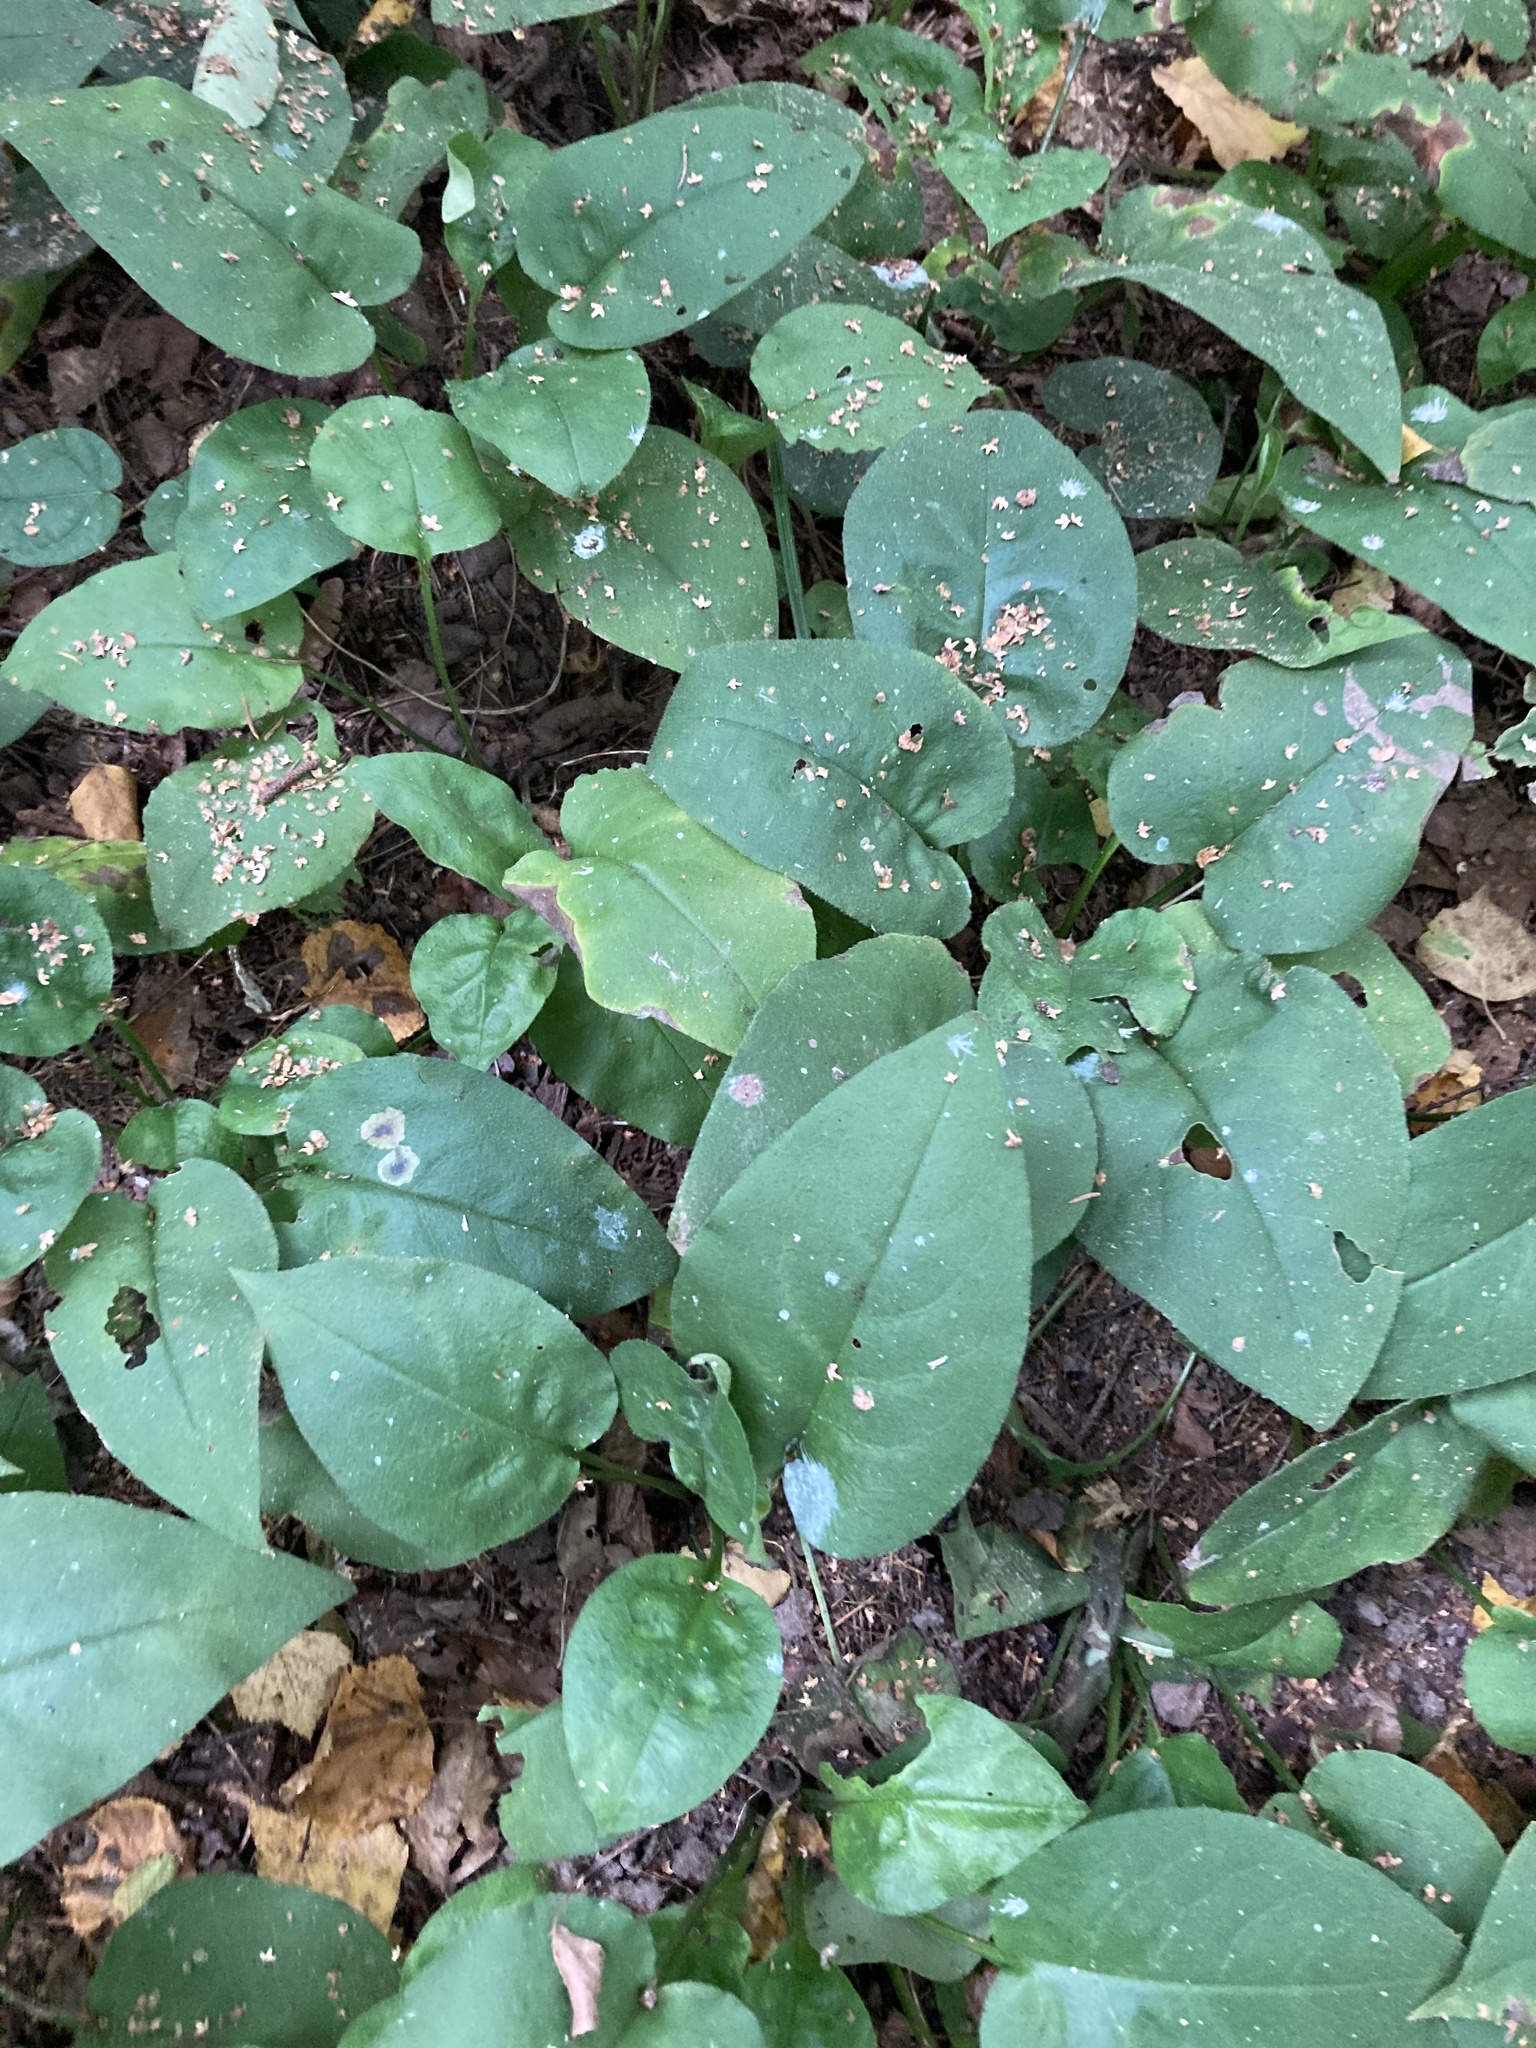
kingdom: Plantae
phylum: Tracheophyta
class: Magnoliopsida
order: Boraginales
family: Boraginaceae
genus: Pulmonaria
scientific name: Pulmonaria obscura
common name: Suffolk lungwort
